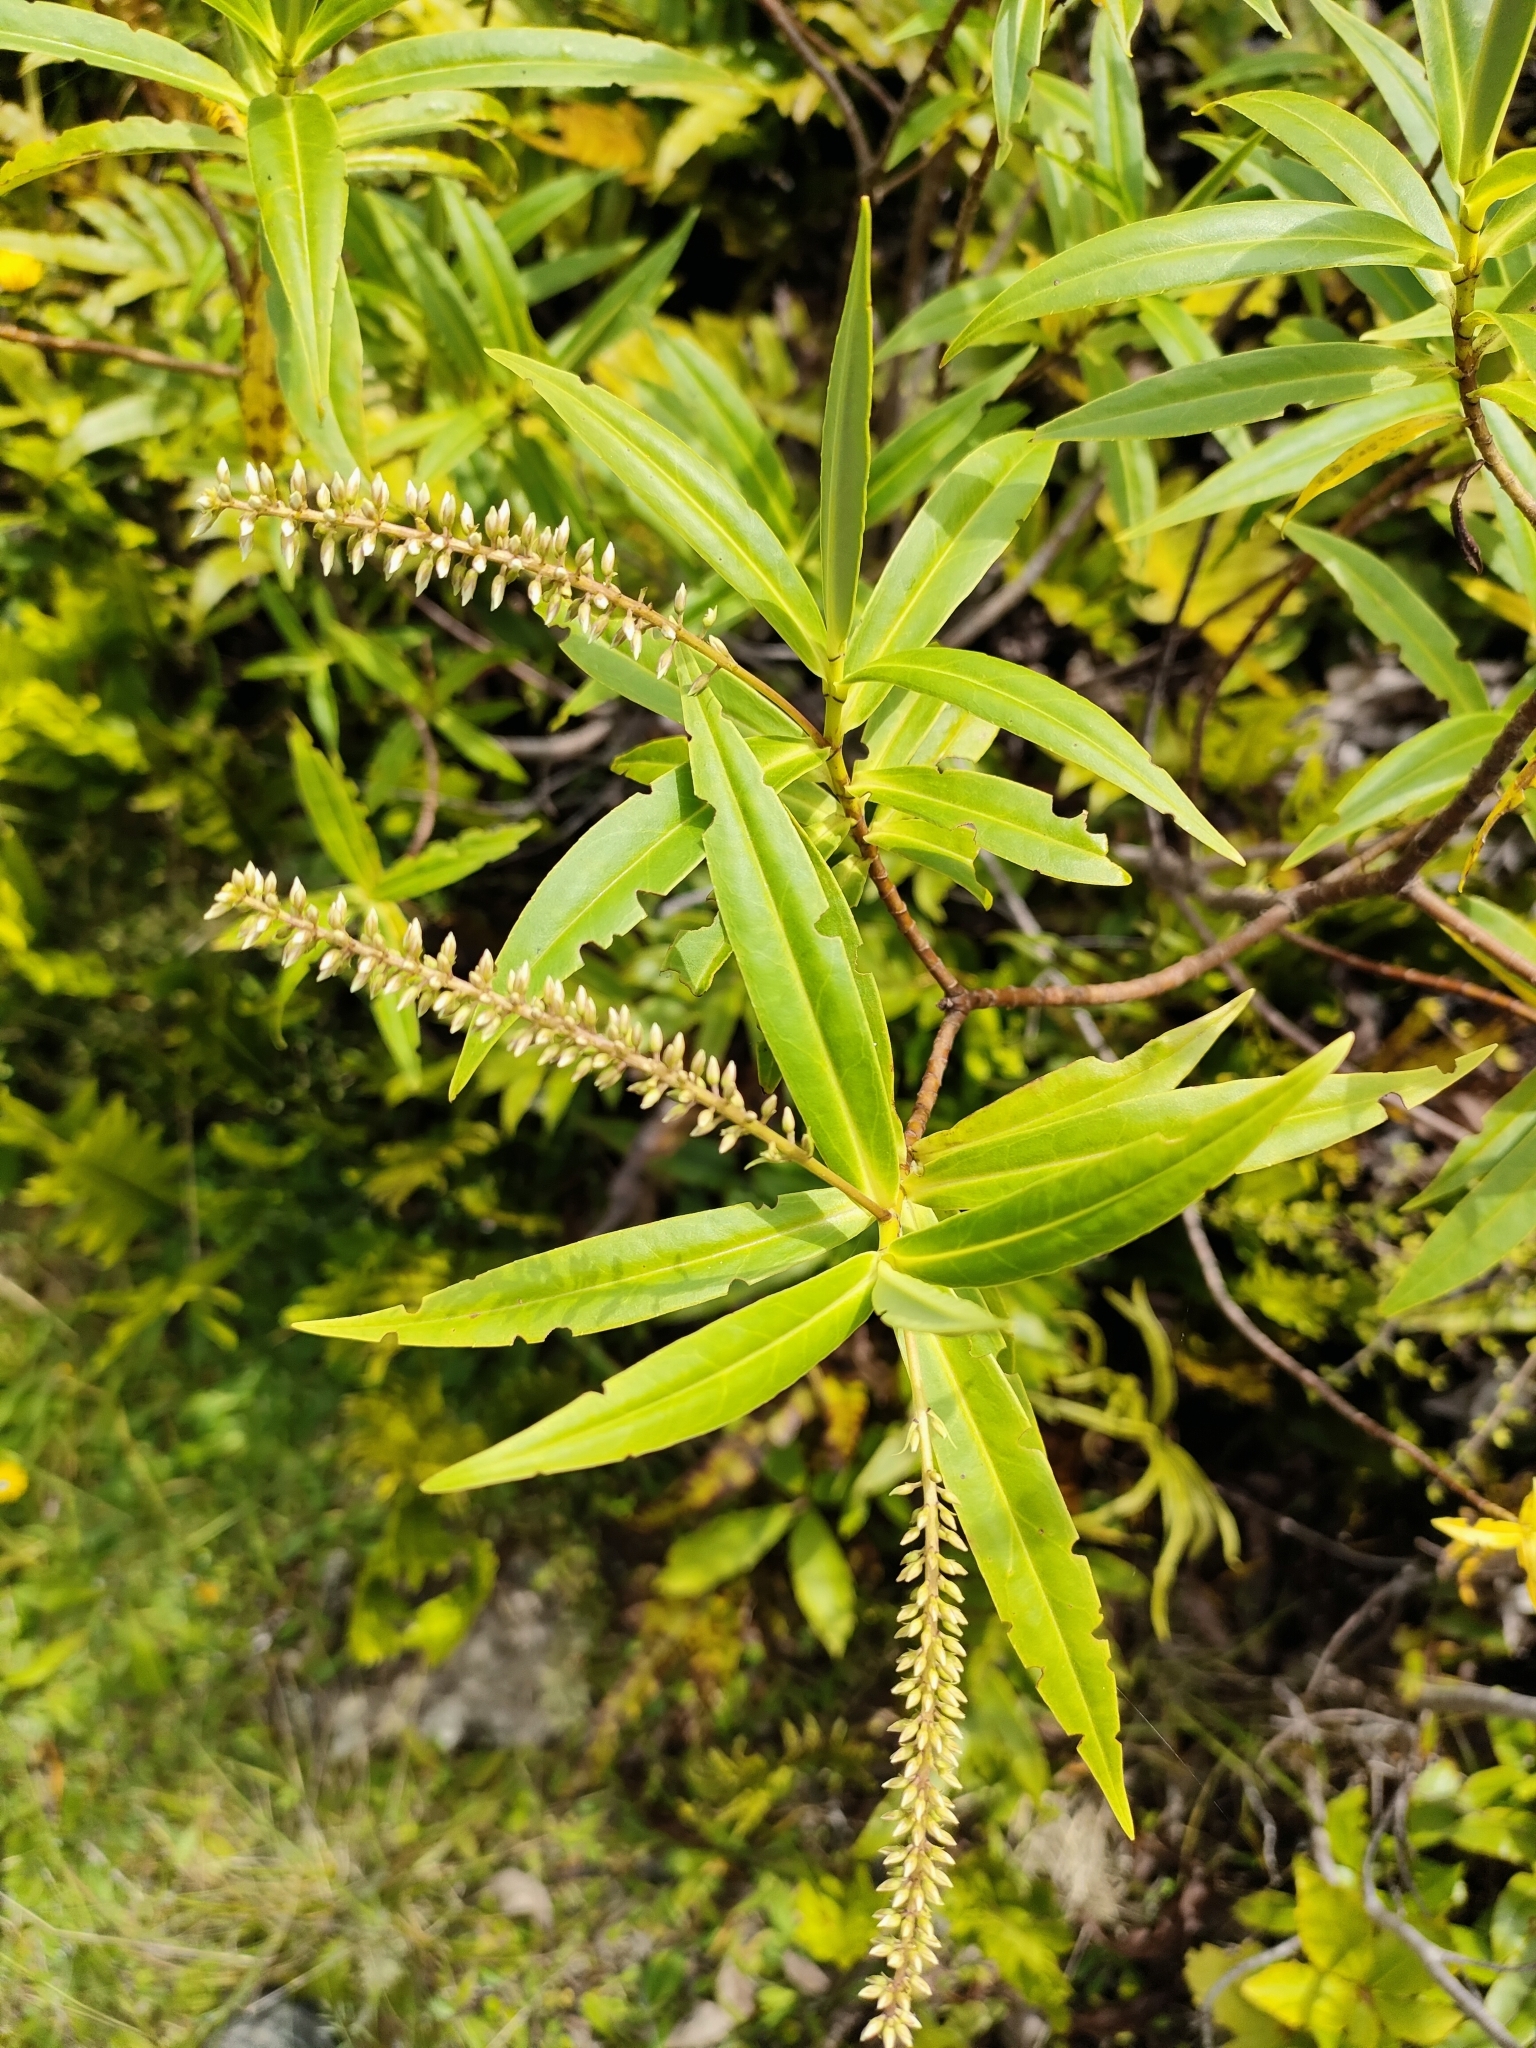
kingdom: Plantae
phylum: Tracheophyta
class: Magnoliopsida
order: Lamiales
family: Plantaginaceae
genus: Veronica
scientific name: Veronica salicifolia
